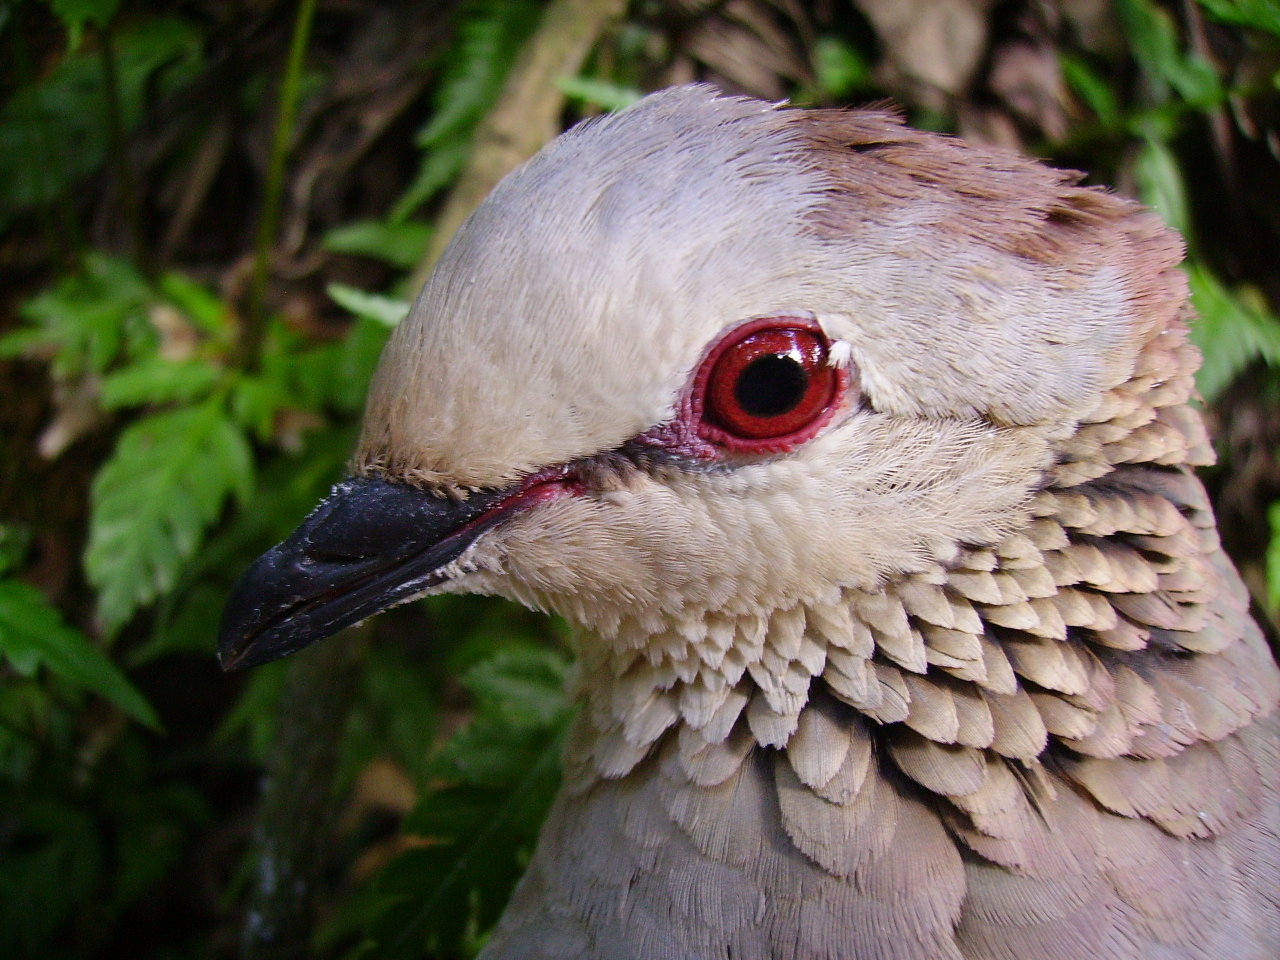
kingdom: Animalia
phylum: Chordata
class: Aves
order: Columbiformes
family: Columbidae
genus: Zentrygon
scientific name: Zentrygon albifacies
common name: White-faced quail-dove
